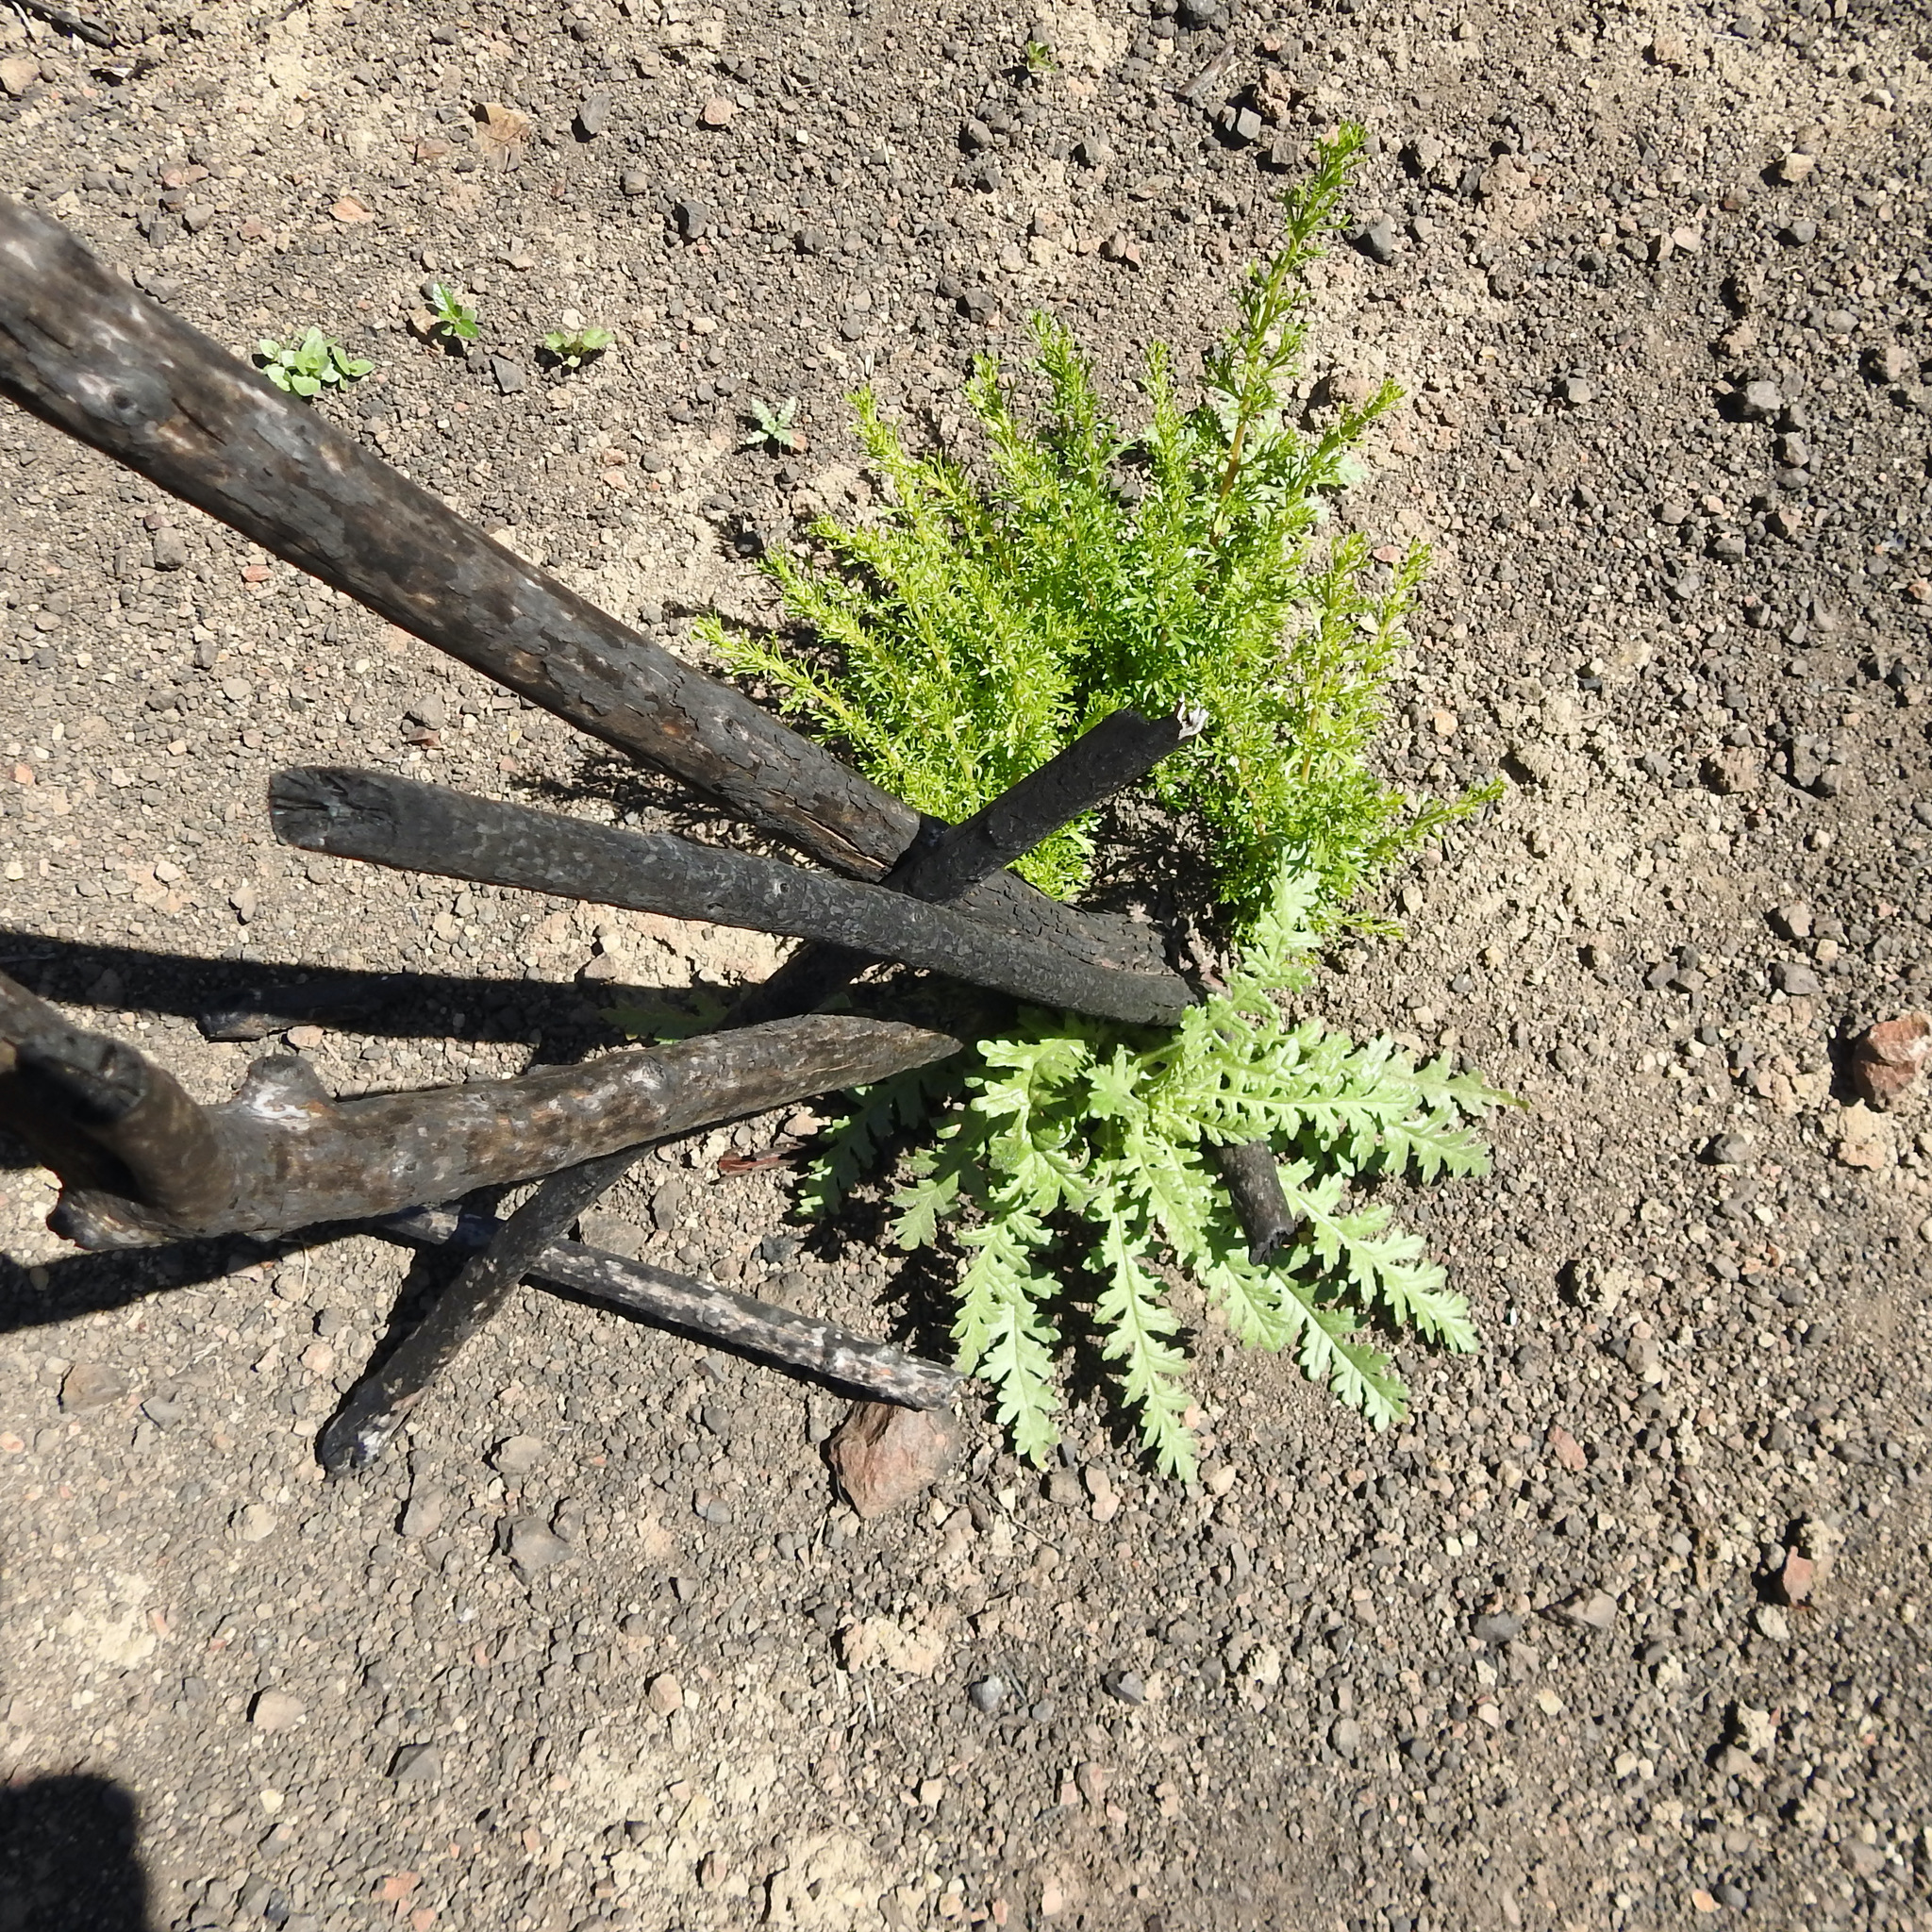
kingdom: Plantae
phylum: Tracheophyta
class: Magnoliopsida
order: Boraginales
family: Hydrophyllaceae
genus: Emmenanthe
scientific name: Emmenanthe penduliflora
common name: Whispering-bells
